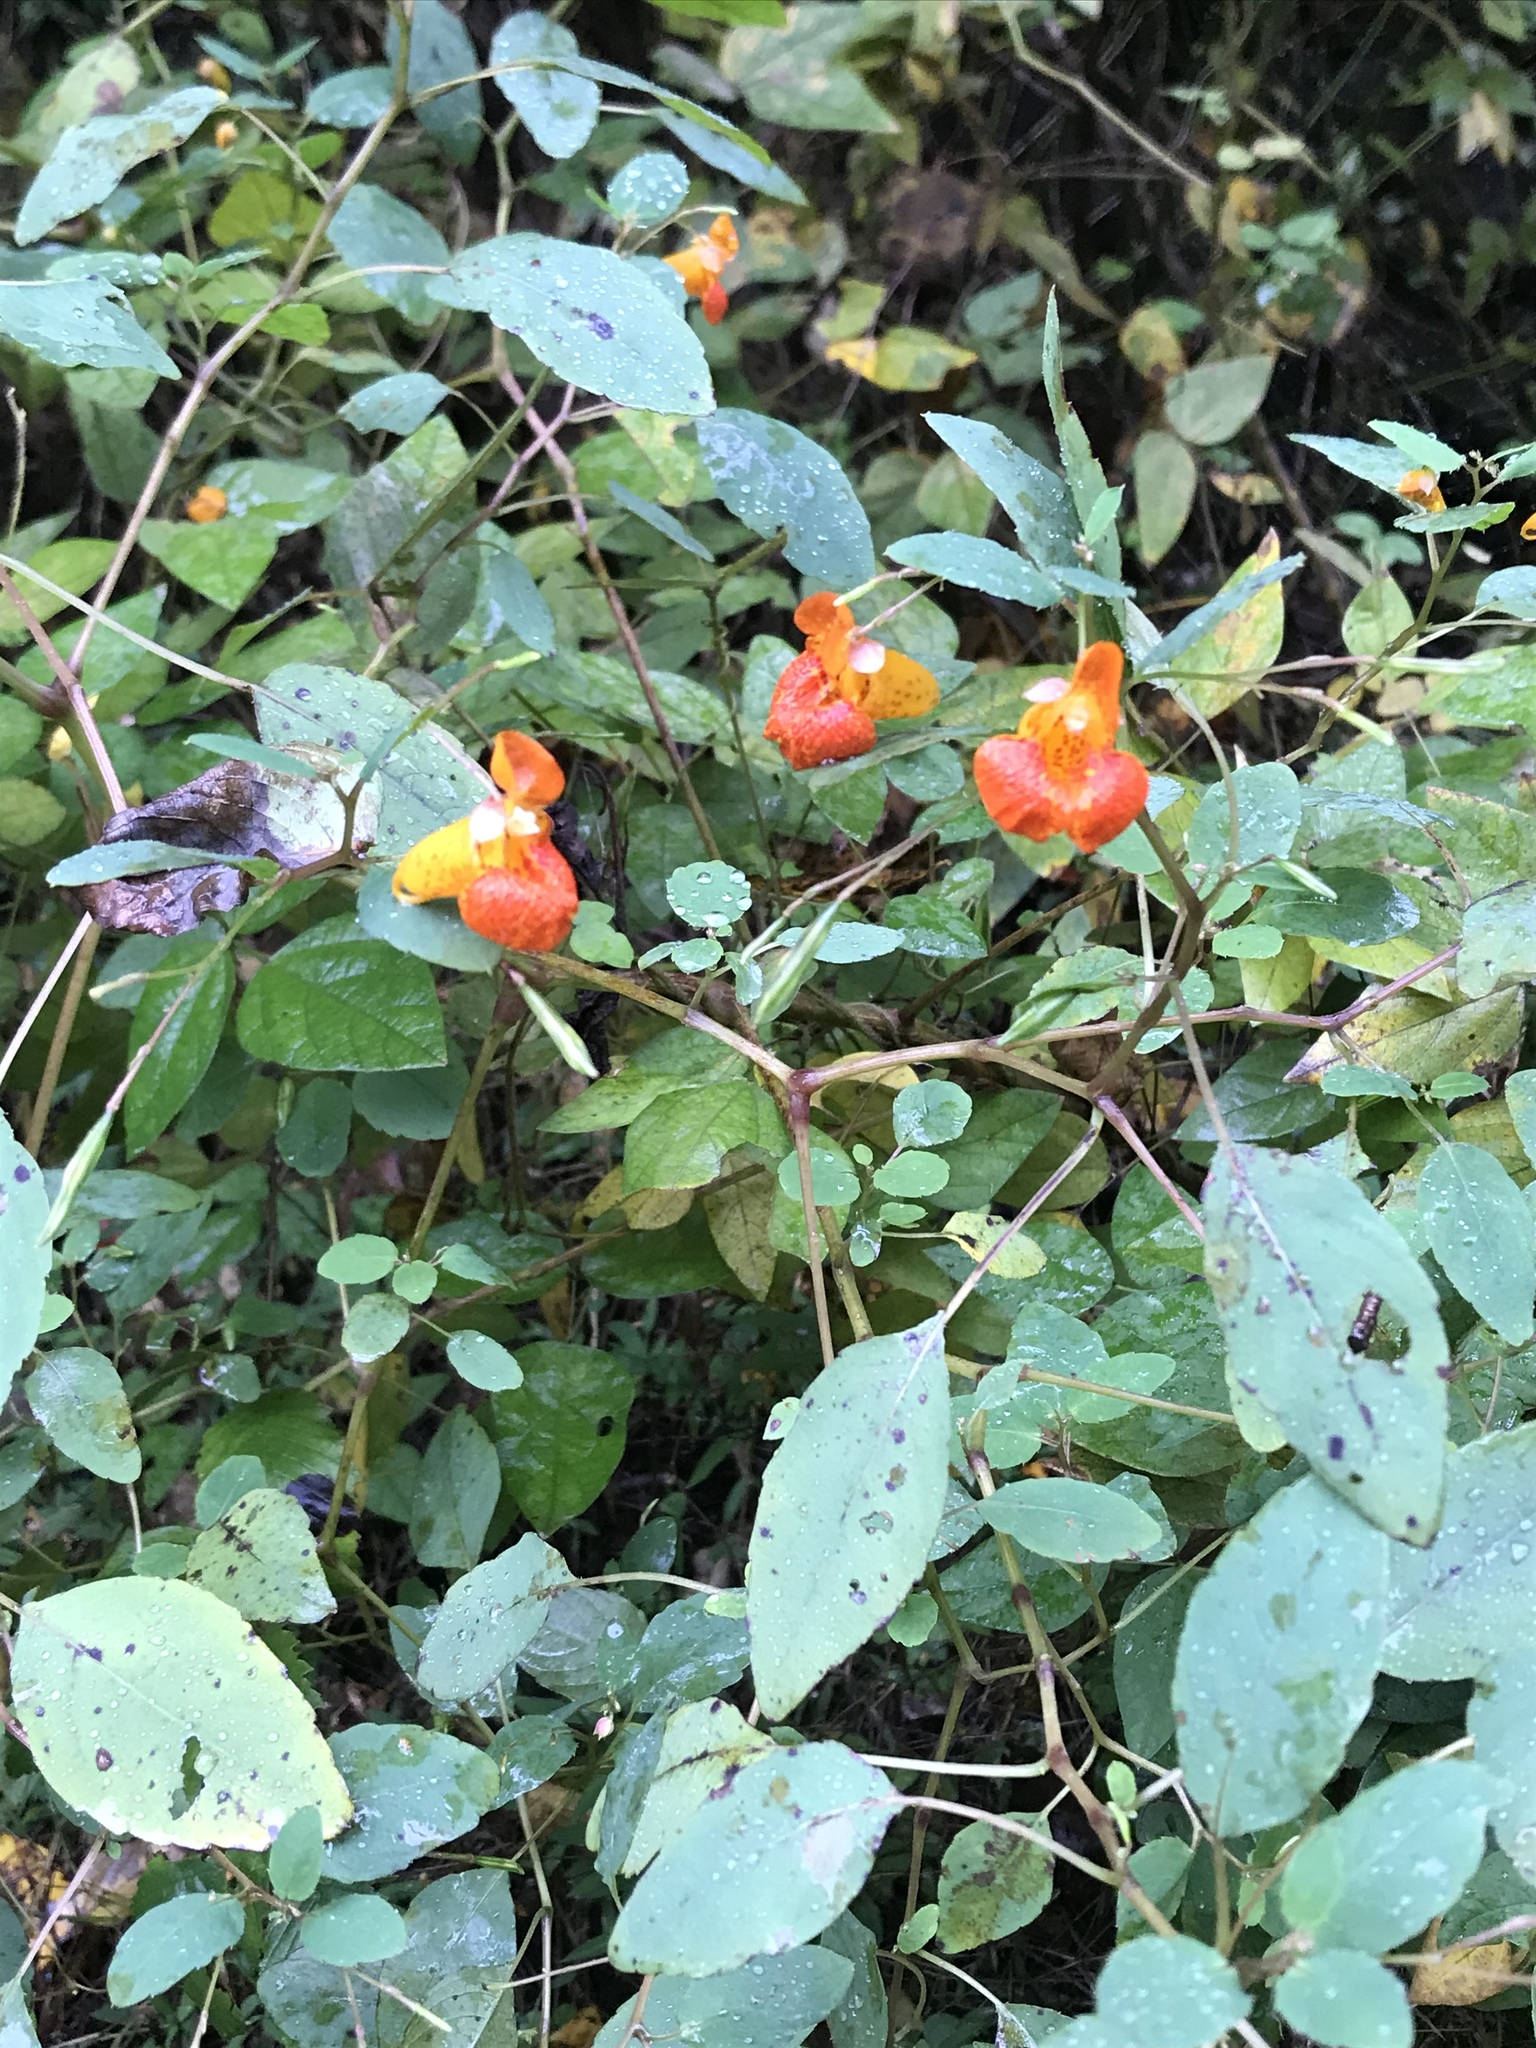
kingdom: Plantae
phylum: Tracheophyta
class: Magnoliopsida
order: Ericales
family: Balsaminaceae
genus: Impatiens
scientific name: Impatiens capensis
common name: Orange balsam
